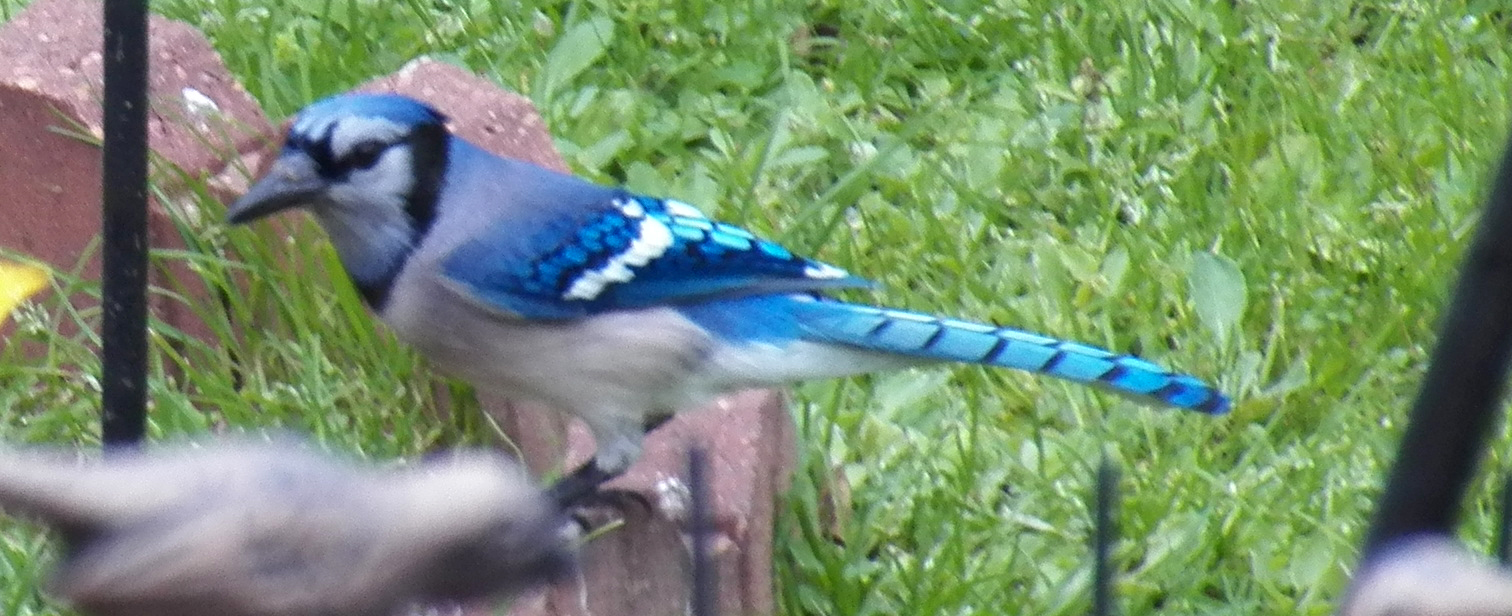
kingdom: Animalia
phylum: Chordata
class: Aves
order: Passeriformes
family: Corvidae
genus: Cyanocitta
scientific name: Cyanocitta cristata
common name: Blue jay
